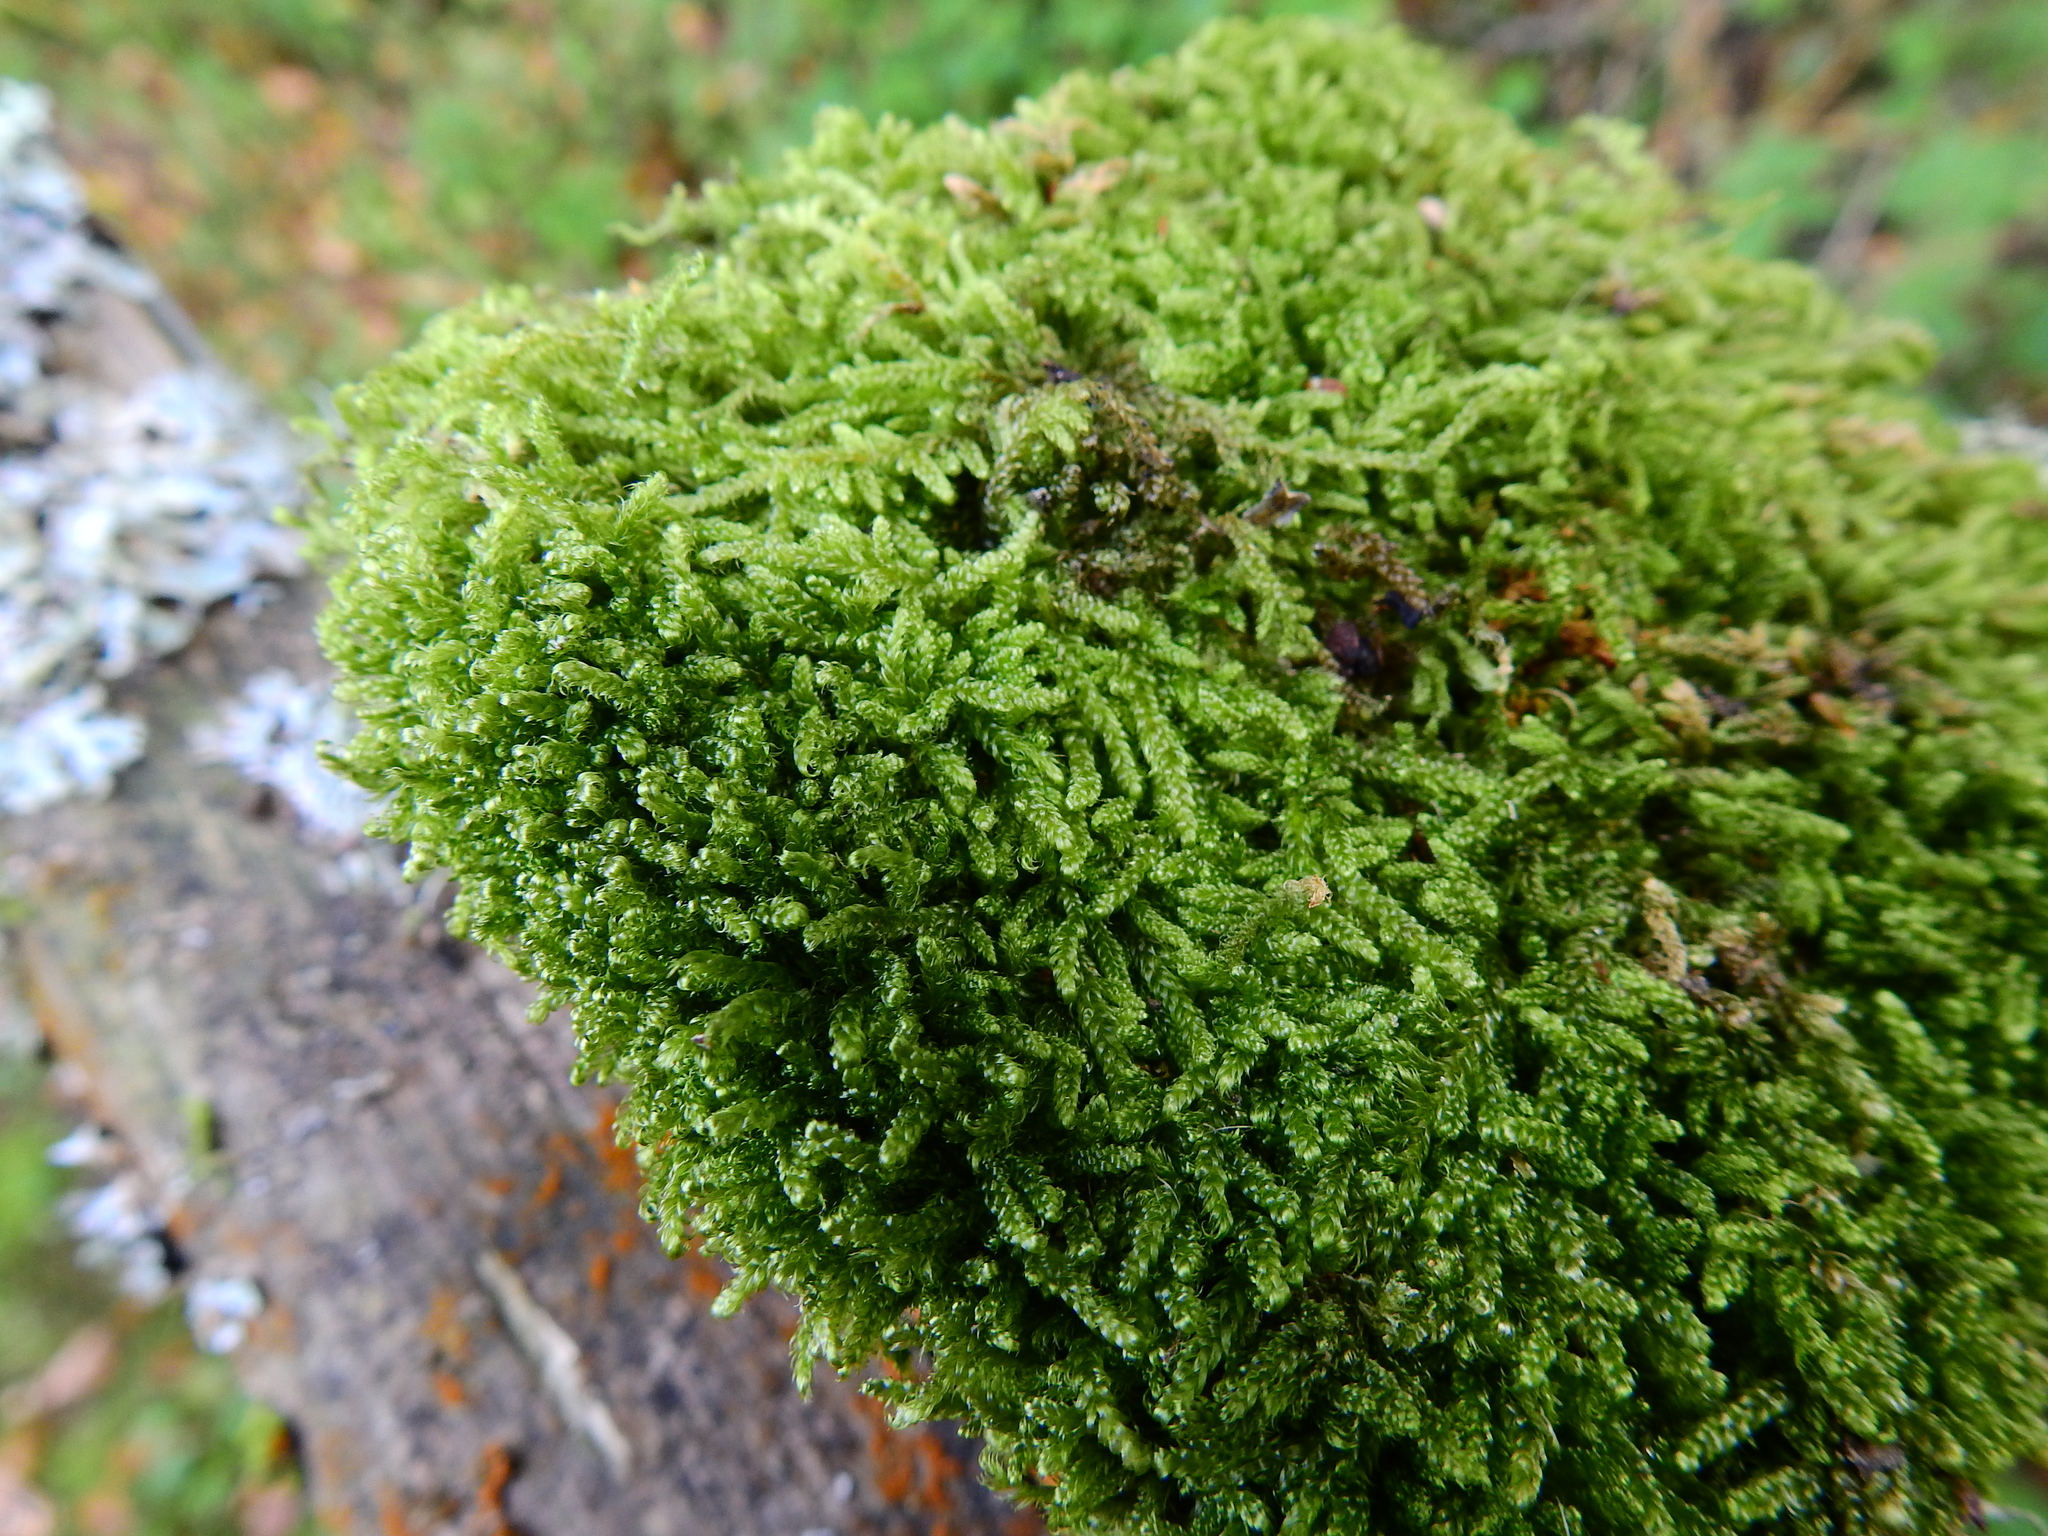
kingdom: Plantae
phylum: Bryophyta
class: Bryopsida
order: Hypnales
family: Hypnaceae
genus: Hypnum
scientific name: Hypnum cupressiforme
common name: Cypress-leaved plait-moss
